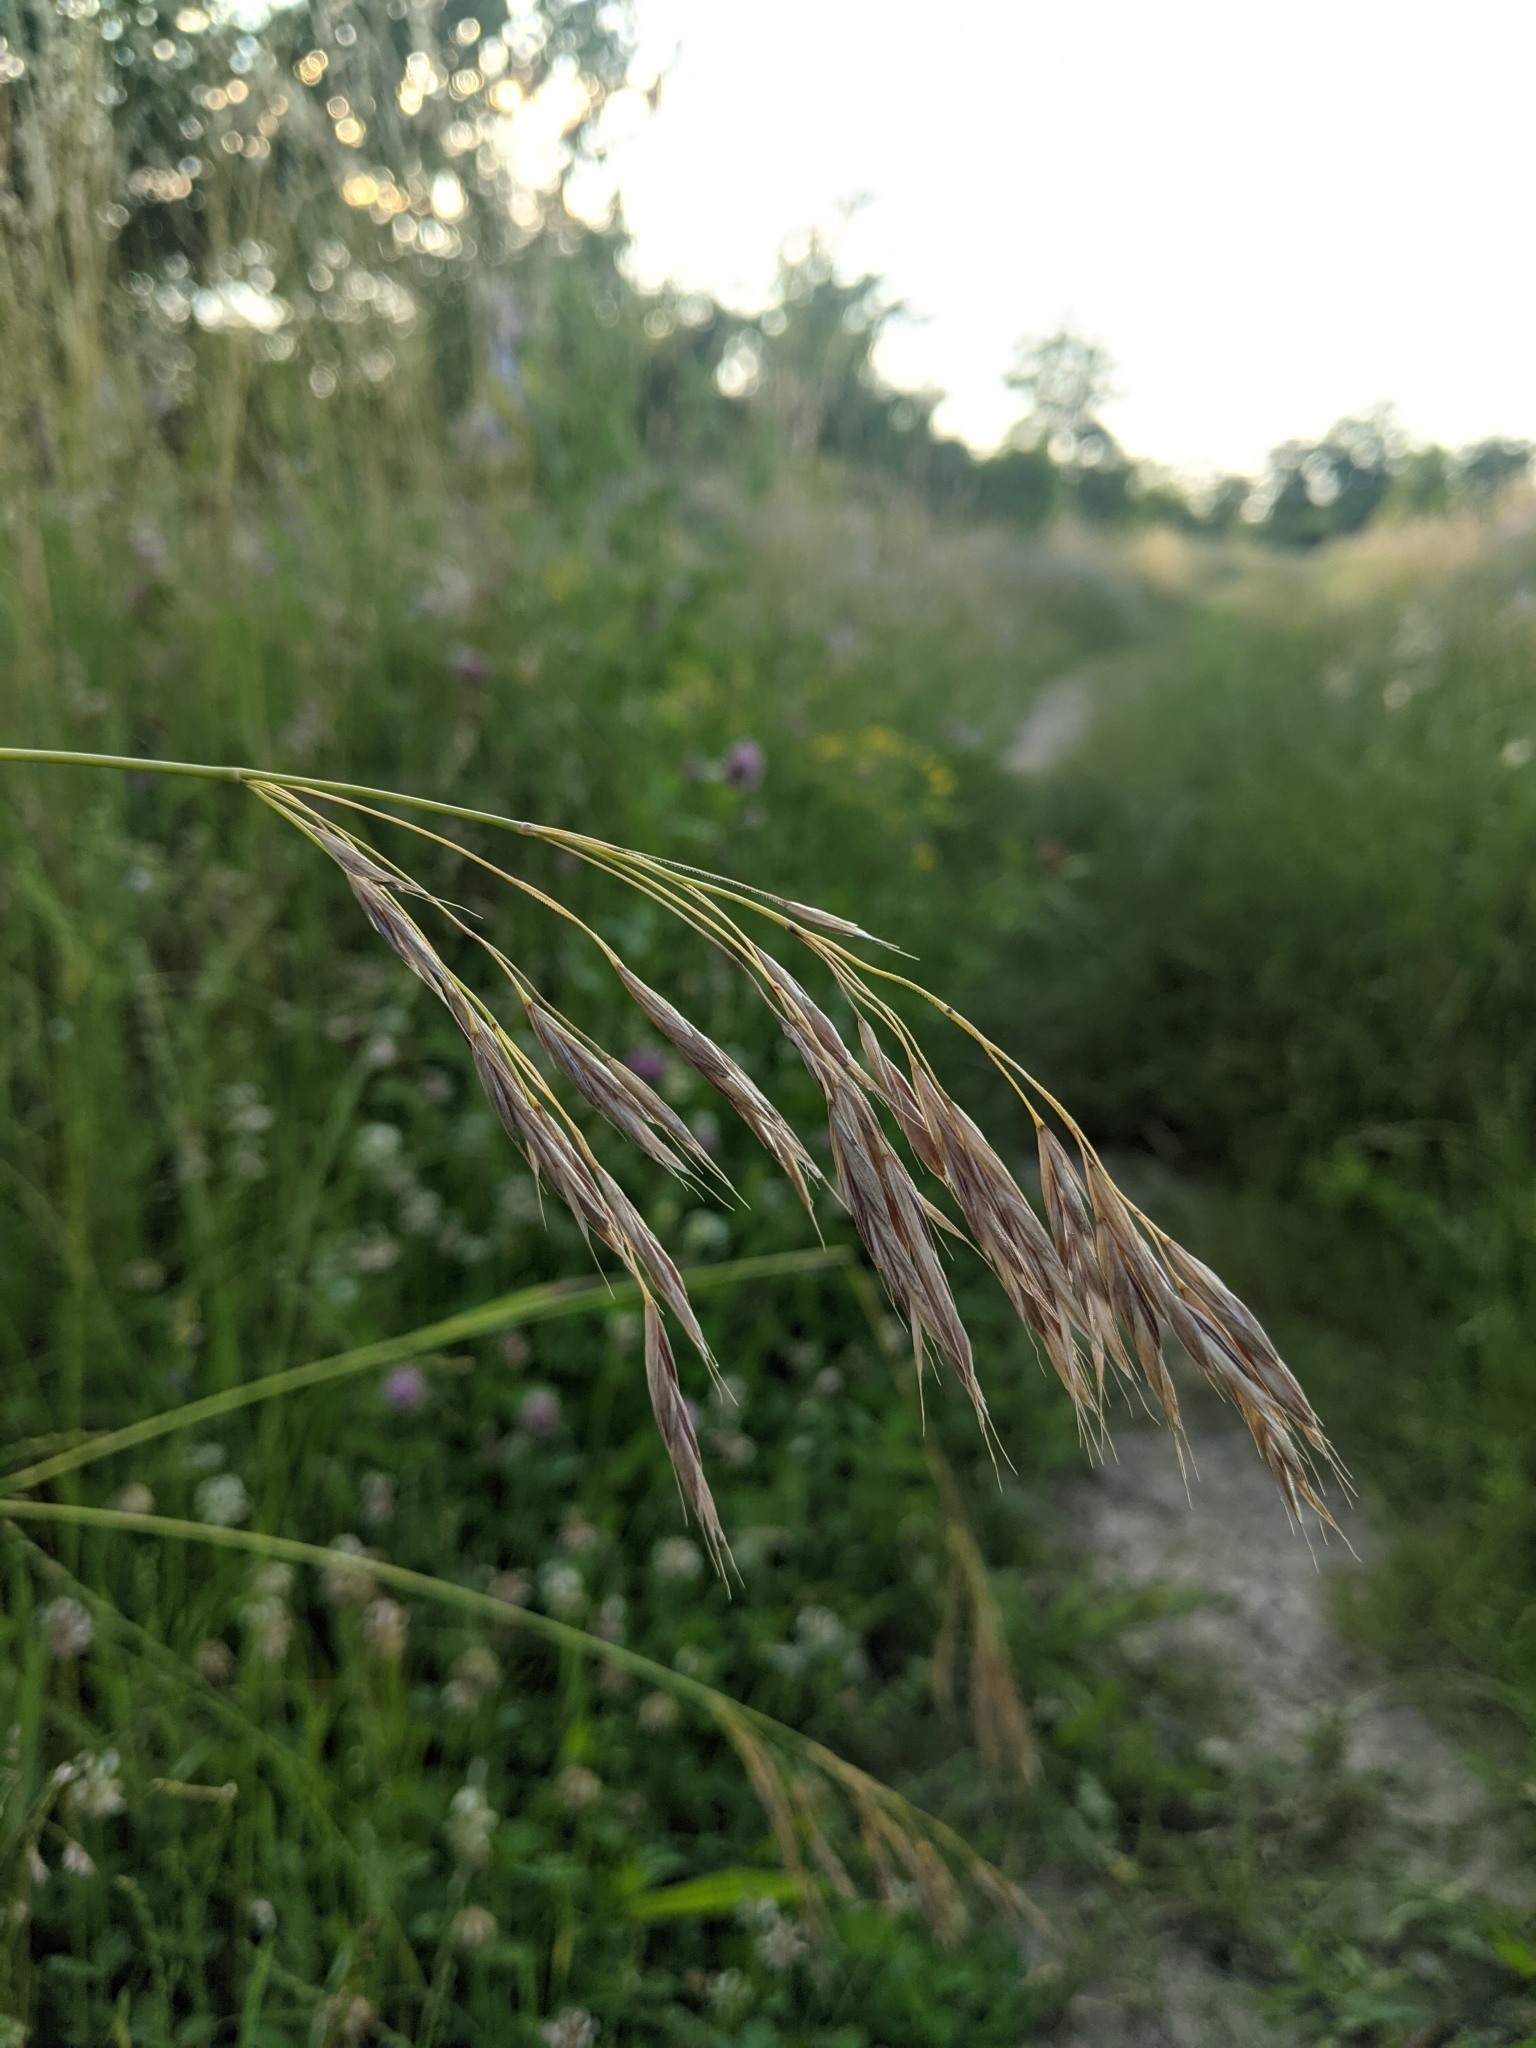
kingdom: Plantae
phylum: Tracheophyta
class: Liliopsida
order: Poales
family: Poaceae
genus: Bromus
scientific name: Bromus inermis
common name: Smooth brome
